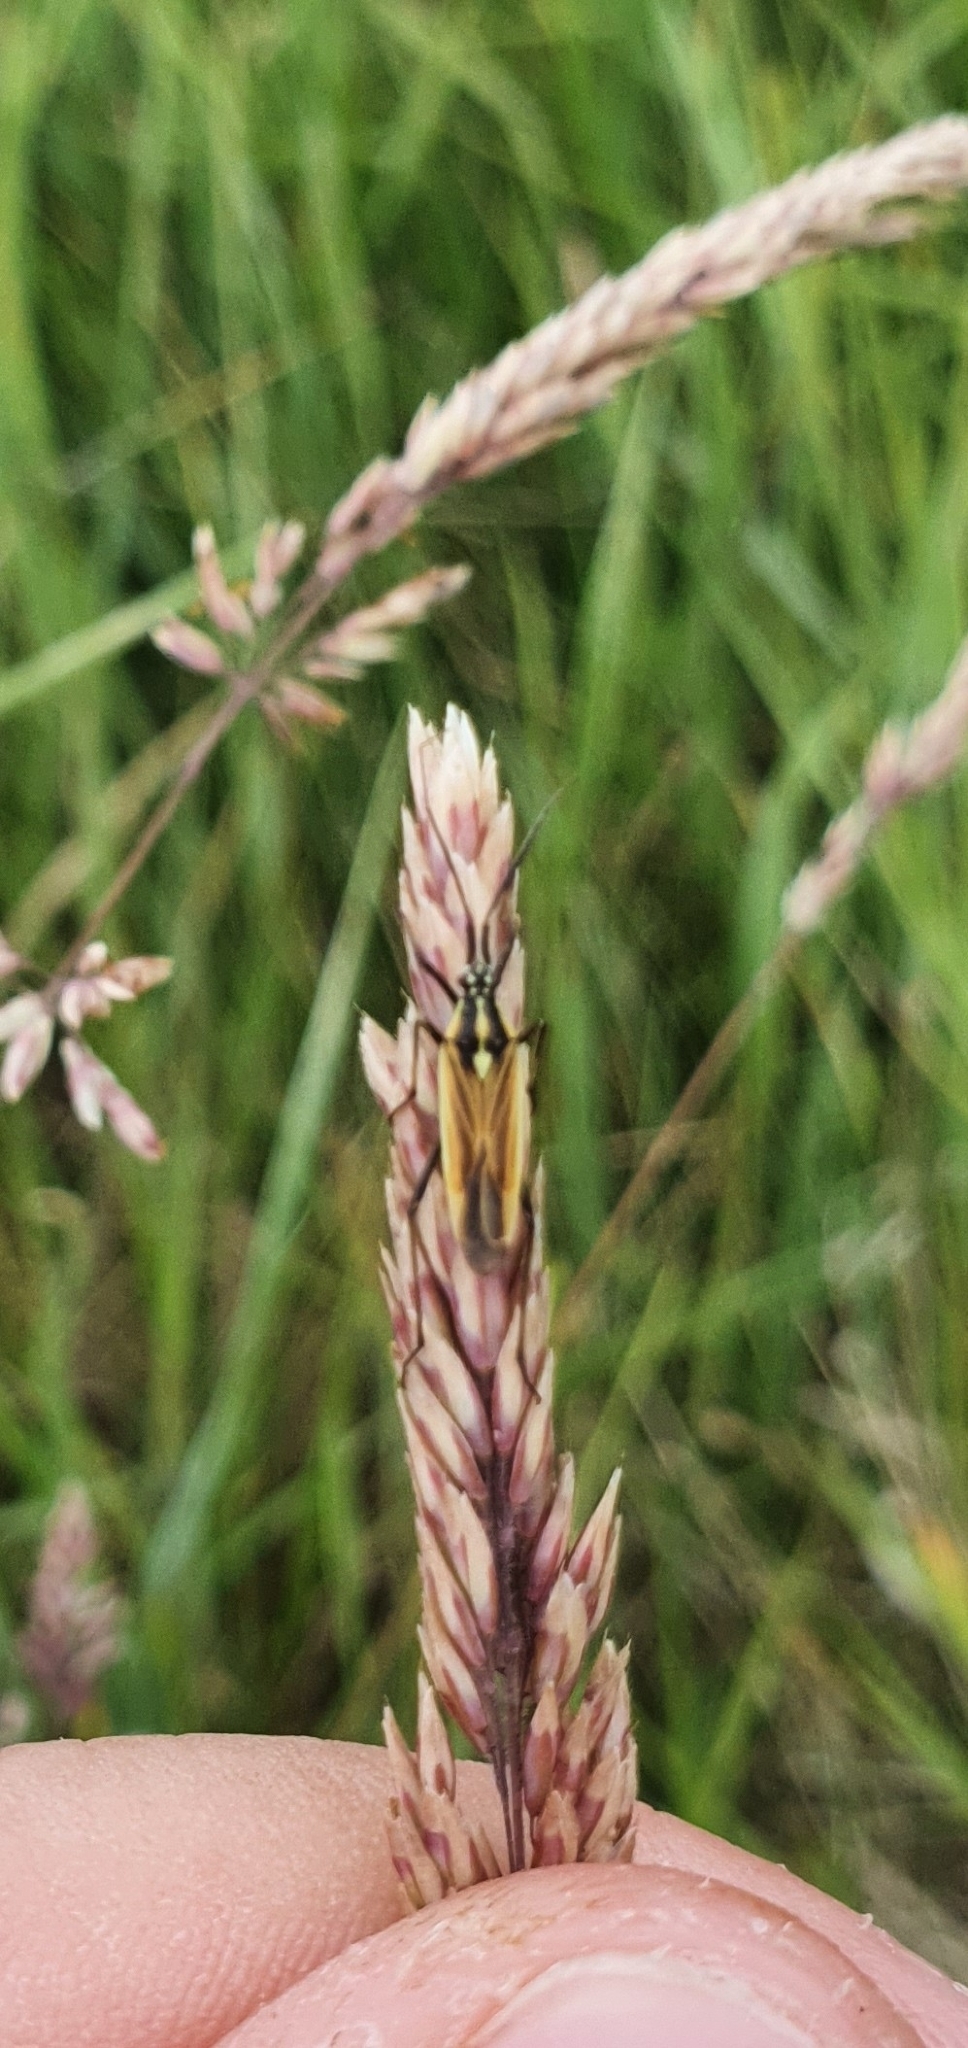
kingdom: Animalia
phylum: Arthropoda
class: Insecta
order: Hemiptera
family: Miridae
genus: Leptopterna
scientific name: Leptopterna dolabrata
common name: Meadow plant bug
